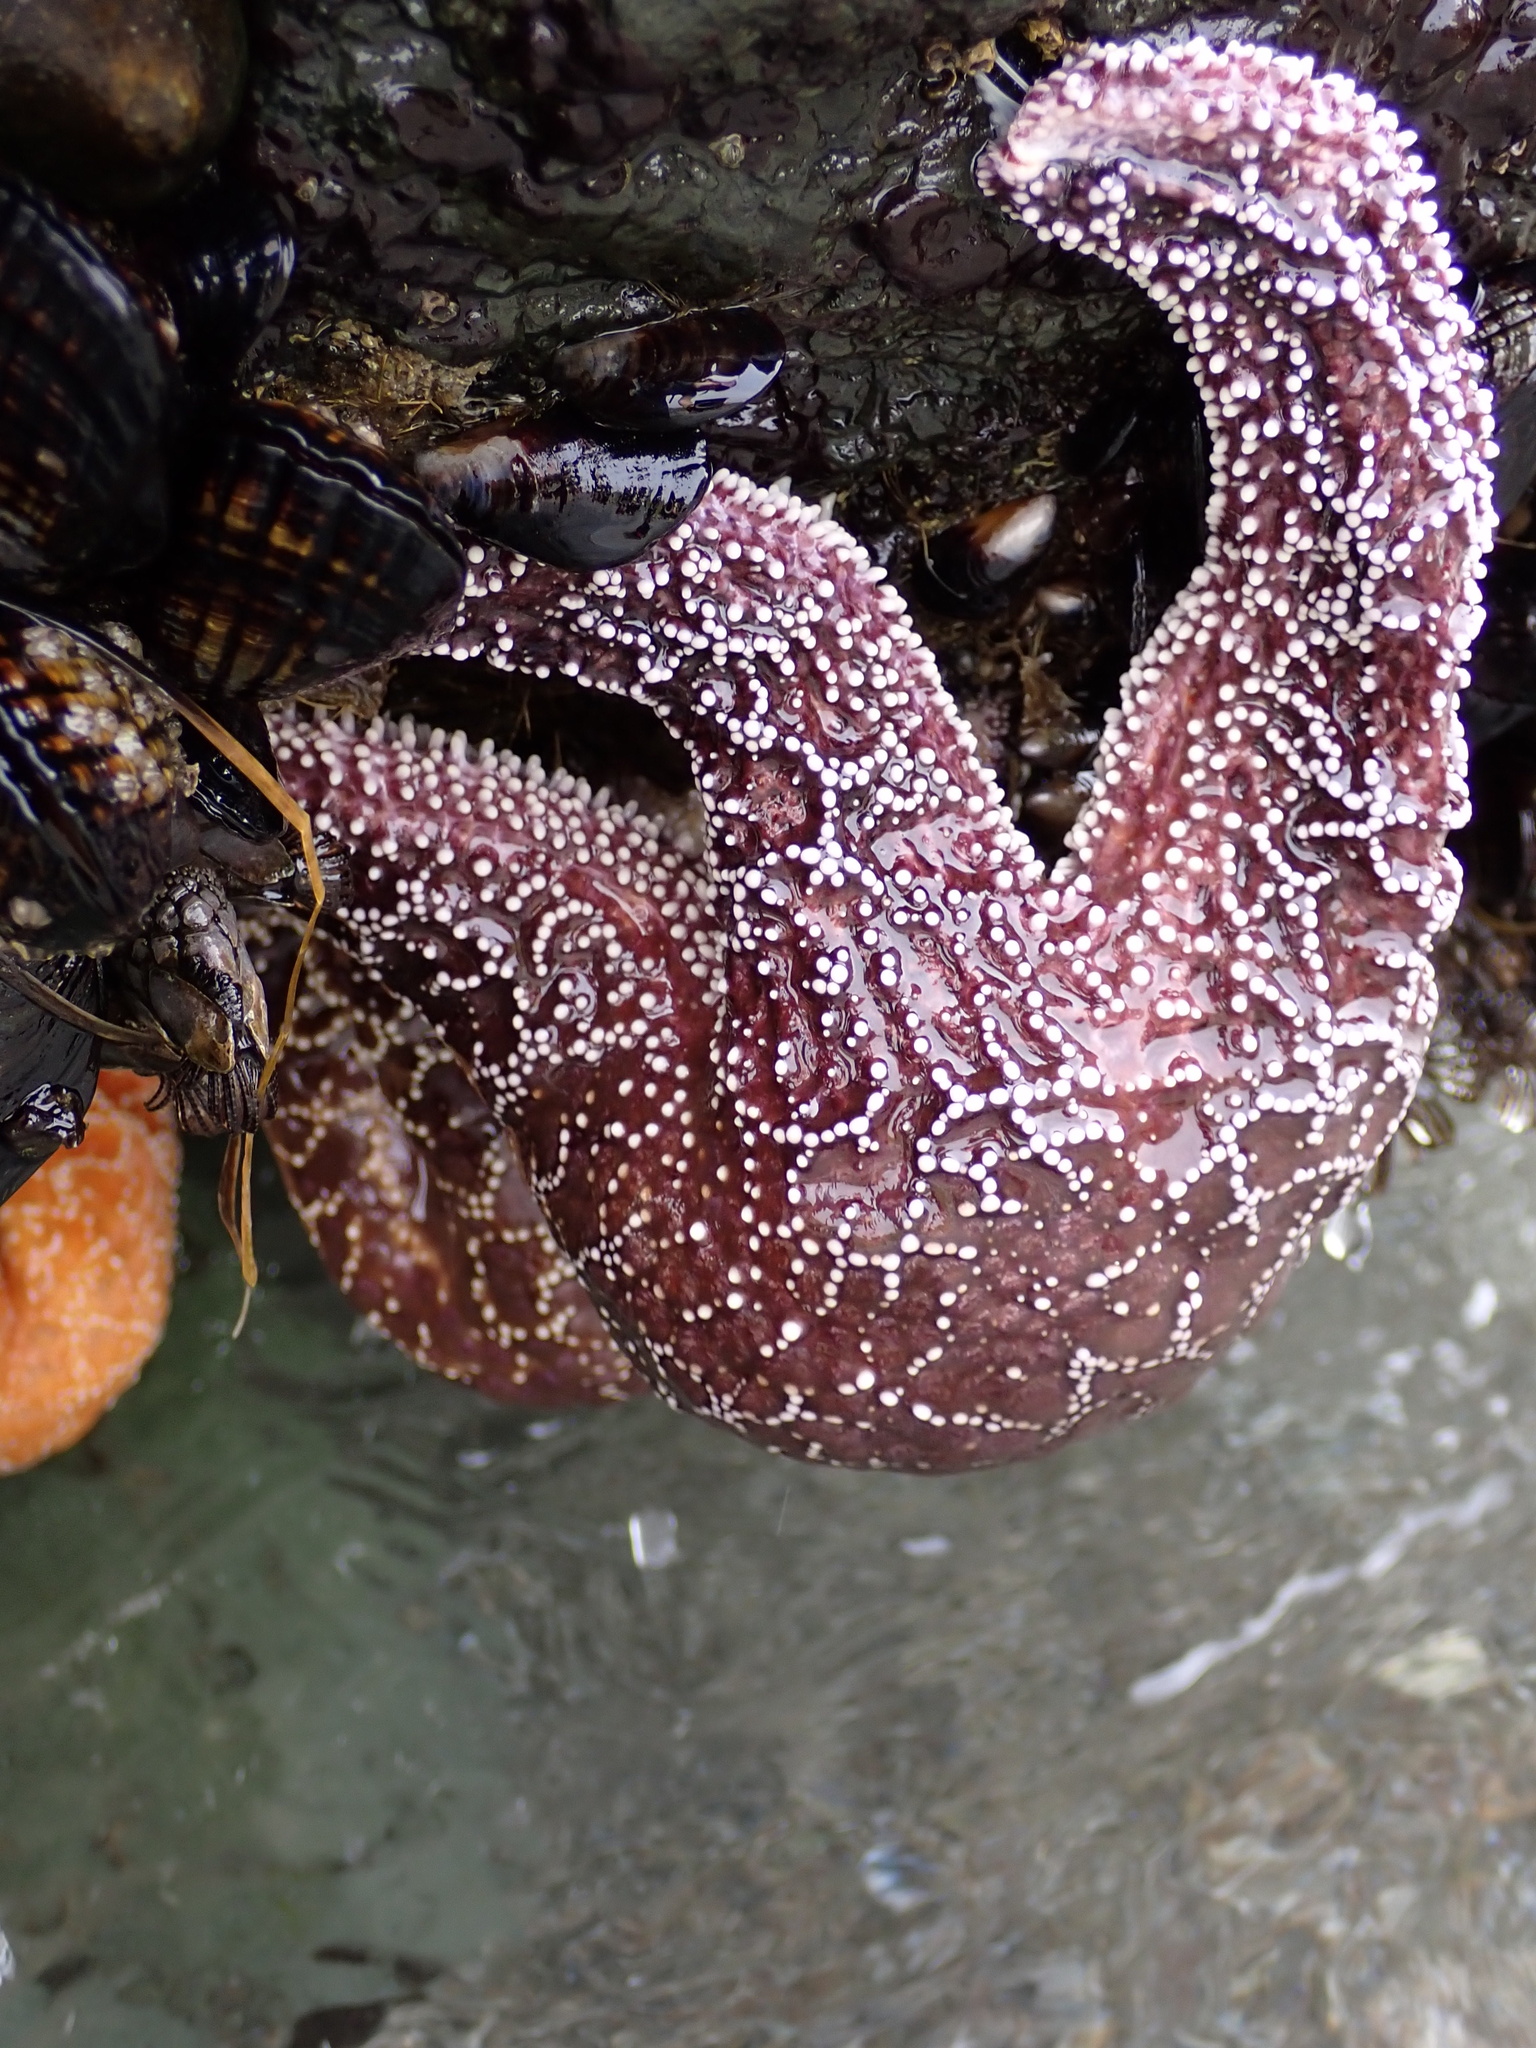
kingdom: Animalia
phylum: Echinodermata
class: Asteroidea
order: Forcipulatida
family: Asteriidae
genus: Pisaster
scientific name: Pisaster ochraceus
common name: Ochre stars
